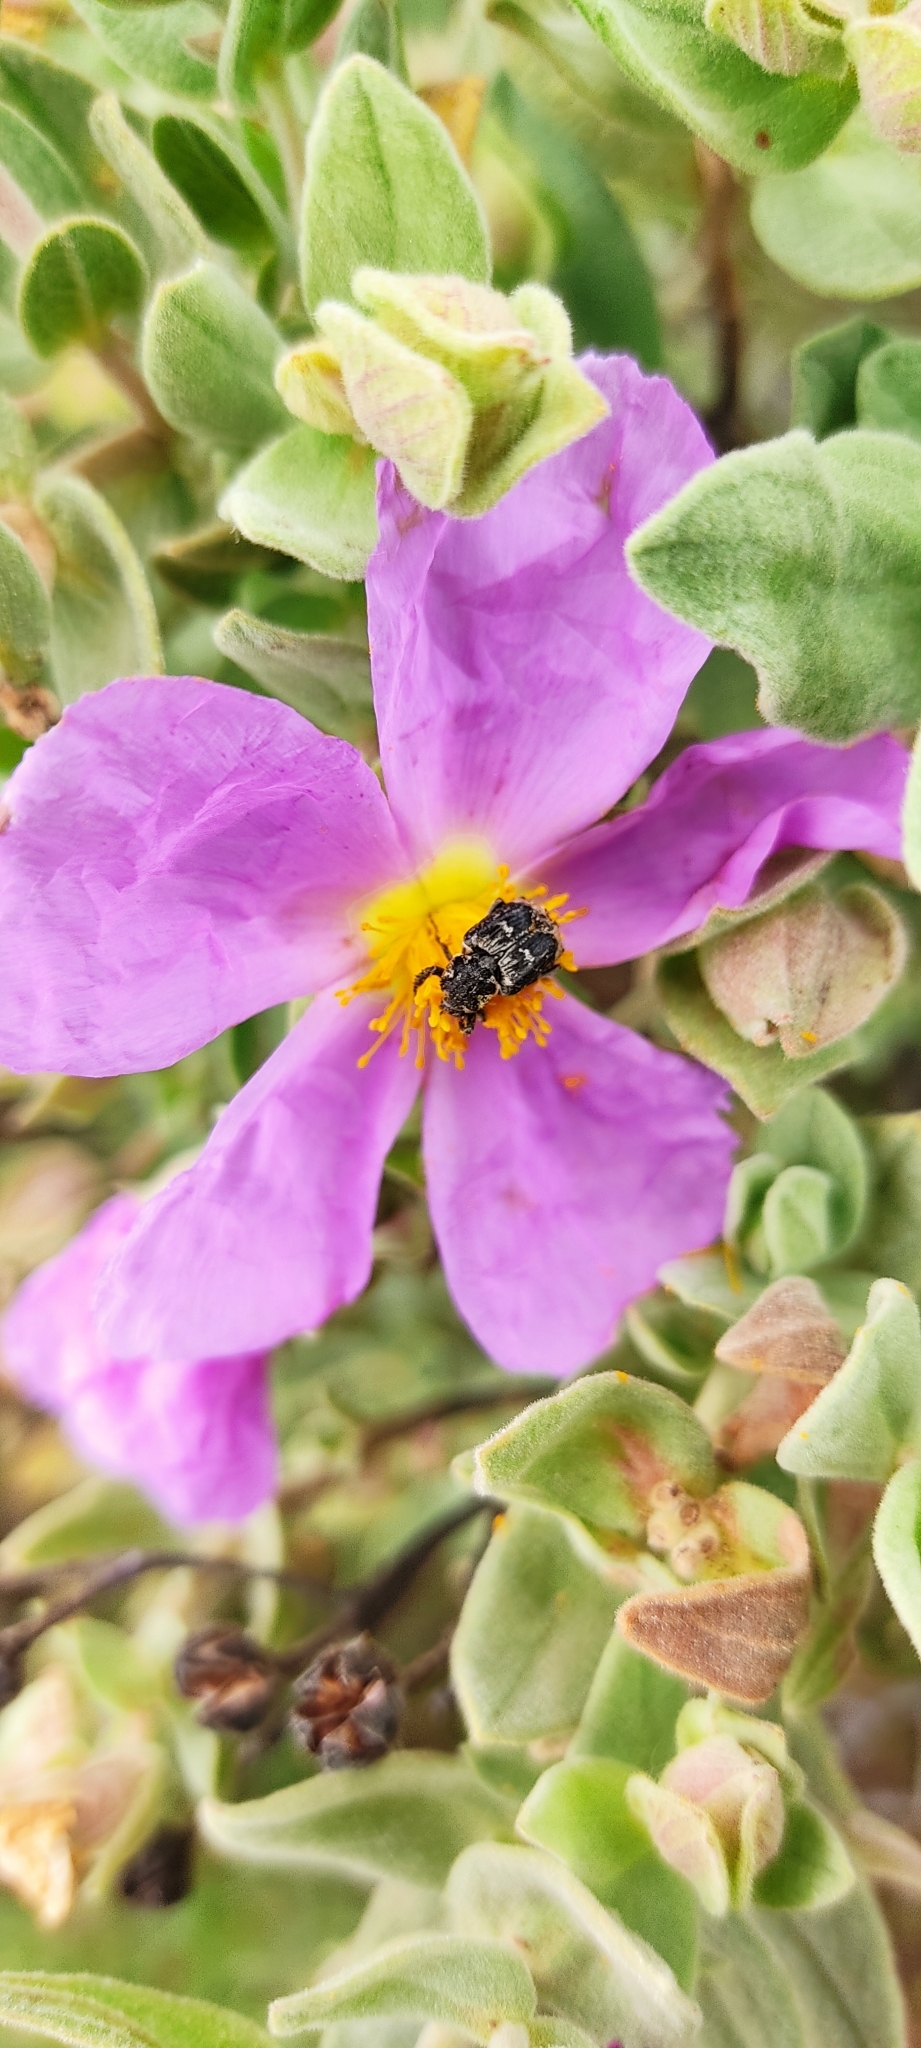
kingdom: Animalia
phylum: Arthropoda
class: Insecta
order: Coleoptera
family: Scarabaeidae
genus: Valgus
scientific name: Valgus hemipterus
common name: Bug flower chafer
